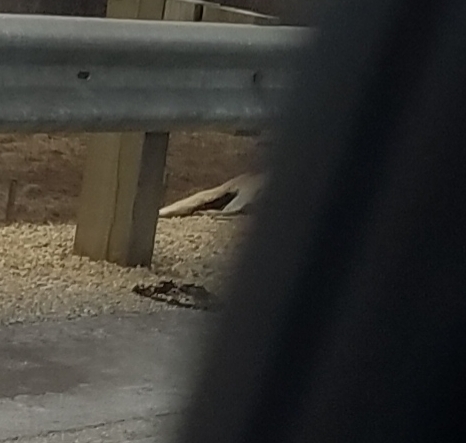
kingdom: Animalia
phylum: Chordata
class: Mammalia
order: Artiodactyla
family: Cervidae
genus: Odocoileus
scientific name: Odocoileus virginianus
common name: White-tailed deer
